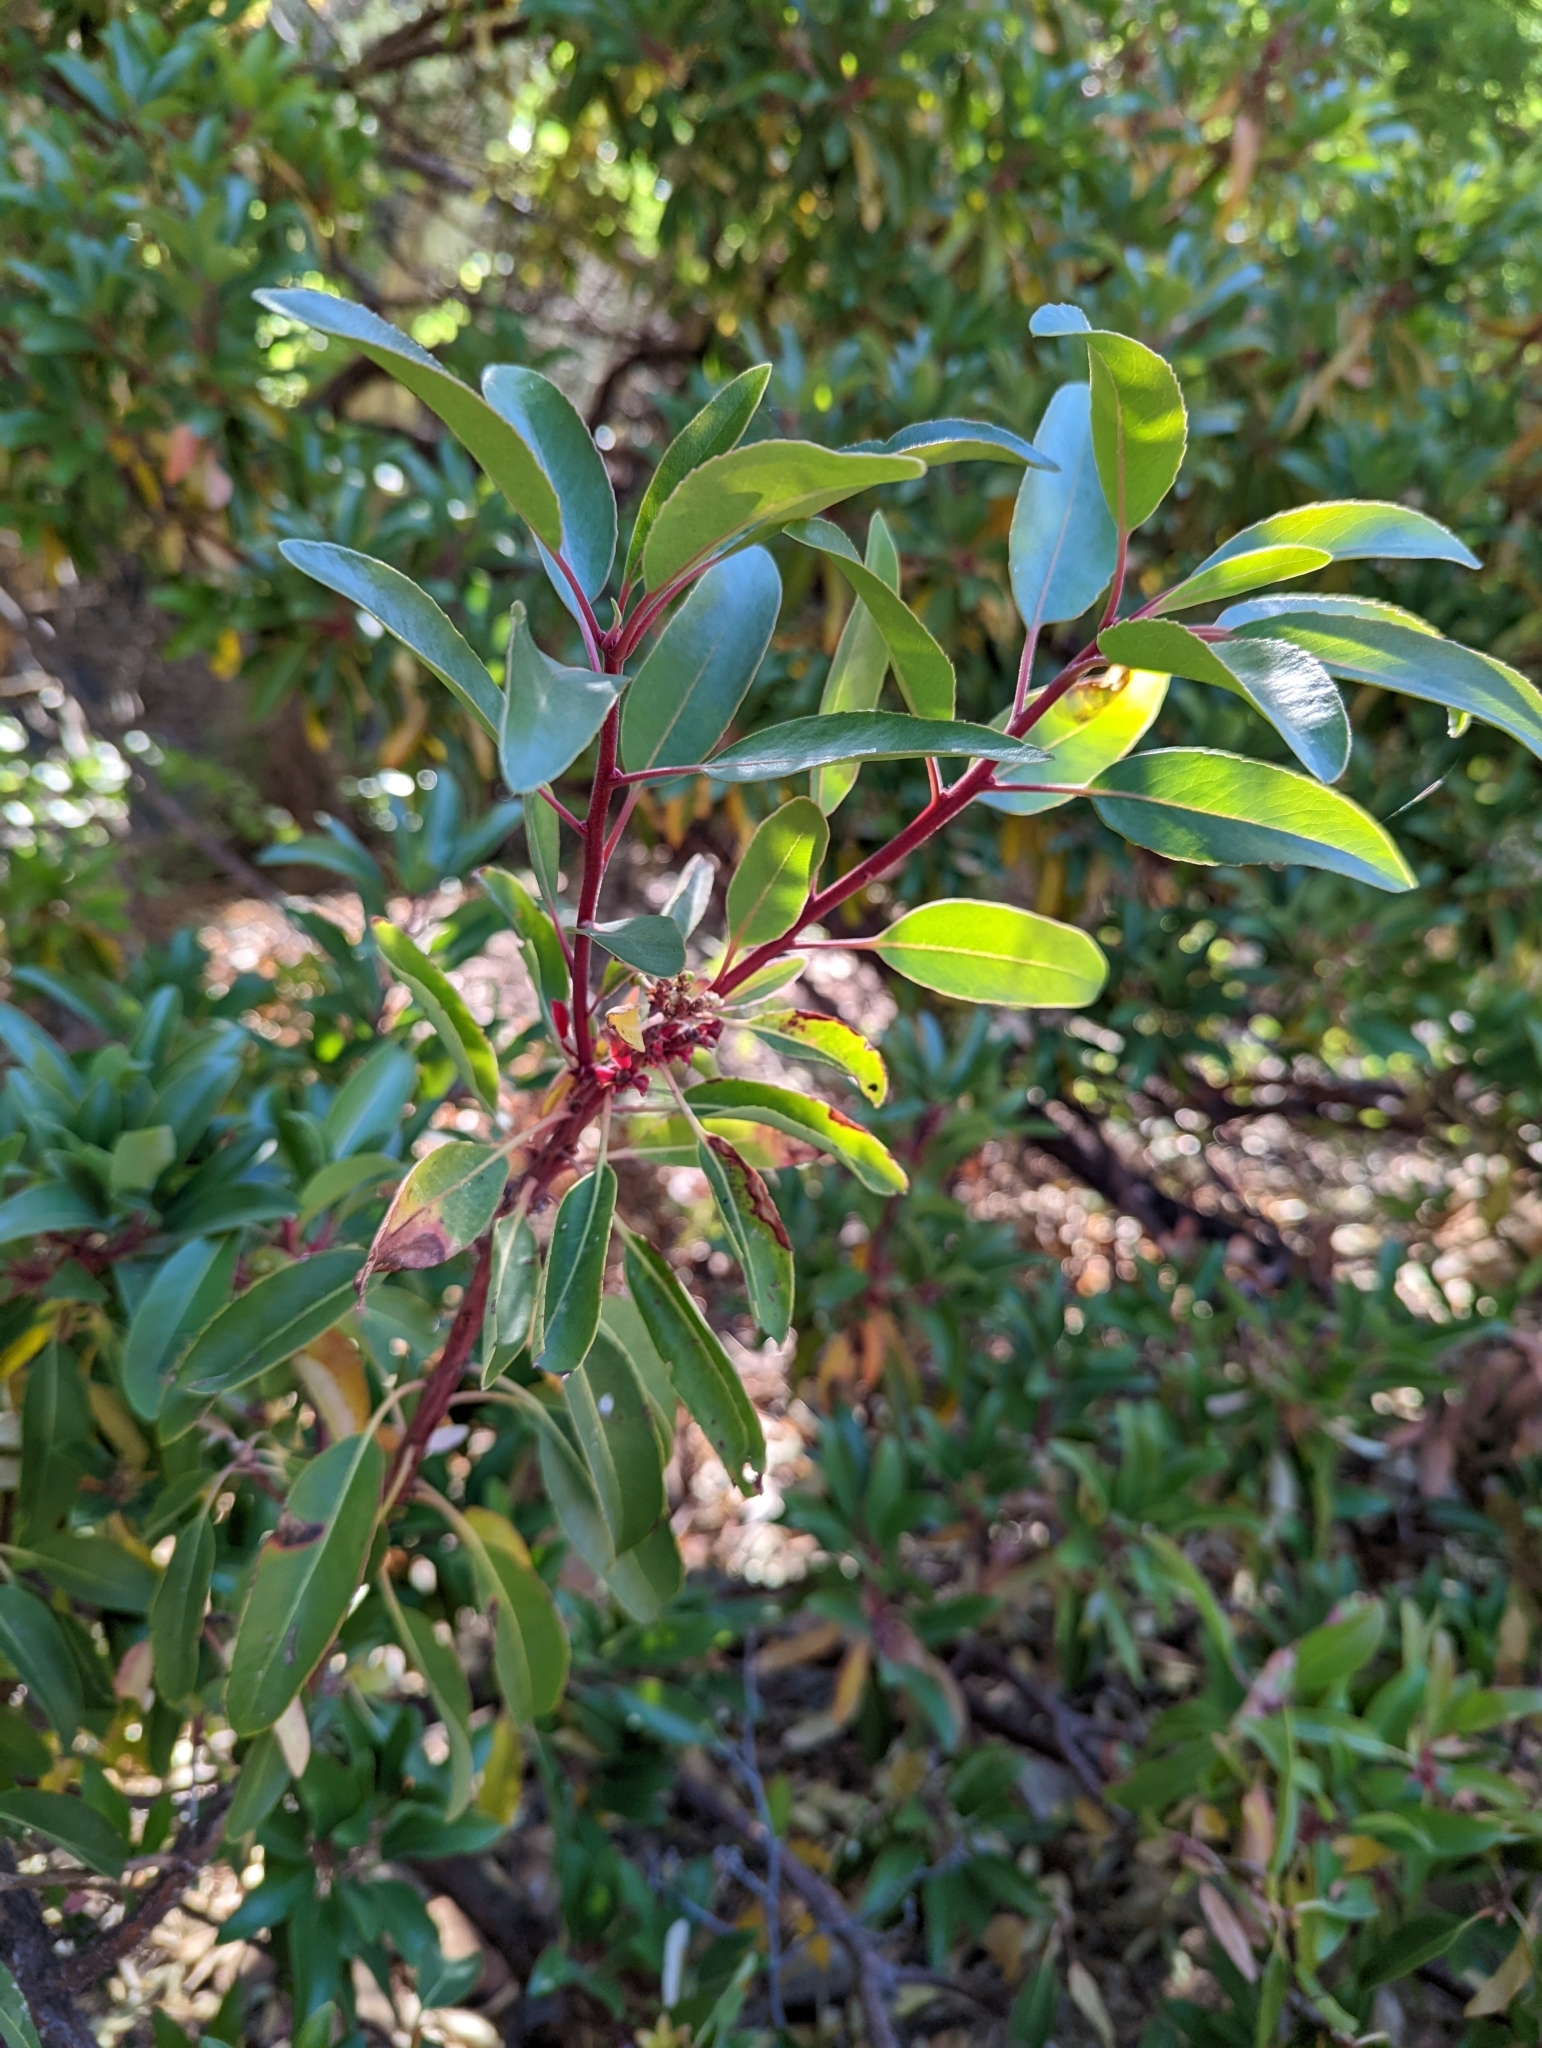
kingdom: Plantae
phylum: Tracheophyta
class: Magnoliopsida
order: Ericales
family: Ericaceae
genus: Arbutus
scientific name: Arbutus arizonica
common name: Arizona madrone
